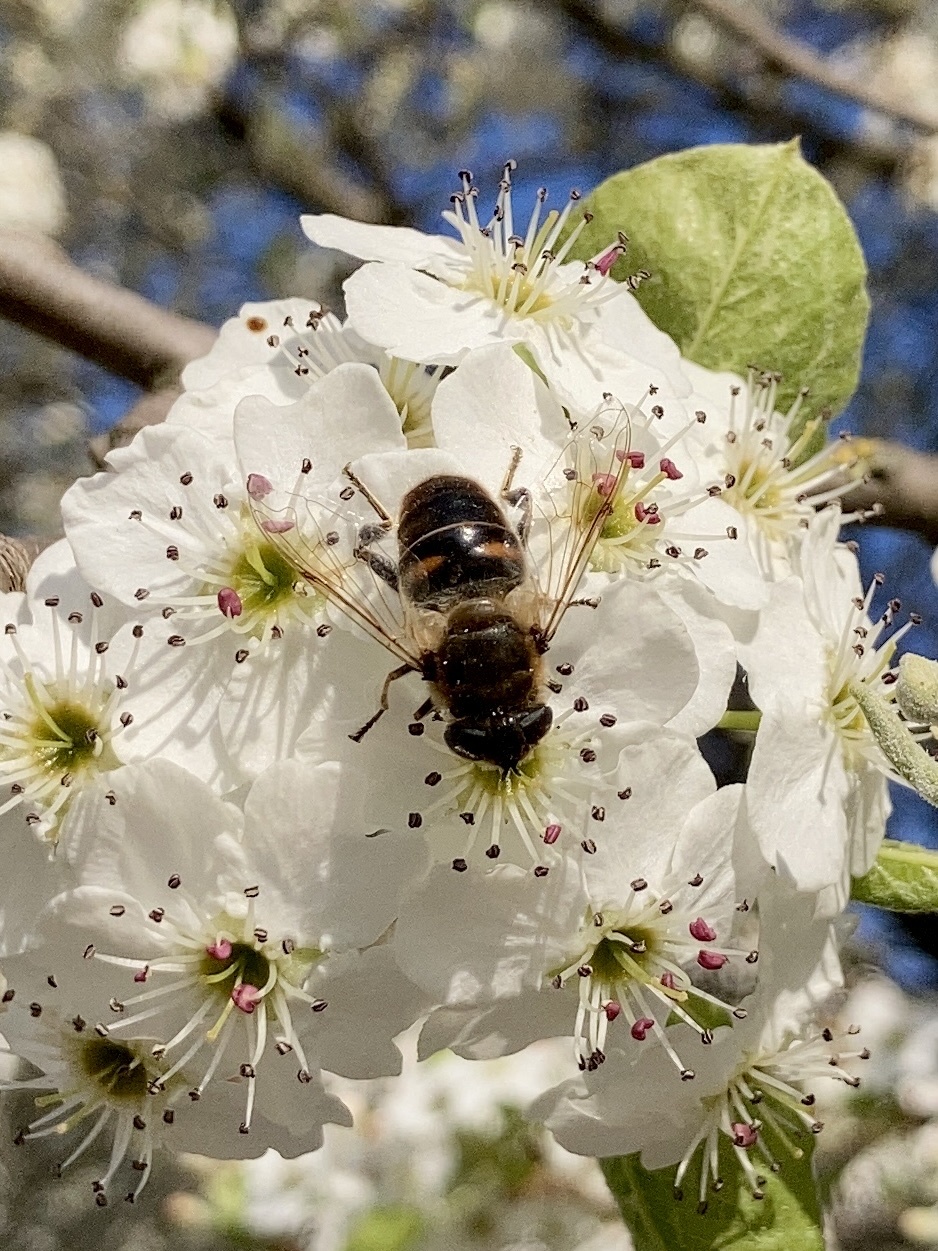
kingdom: Animalia
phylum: Arthropoda
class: Insecta
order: Diptera
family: Syrphidae
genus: Eristalis
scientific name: Eristalis tenax
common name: Drone fly
